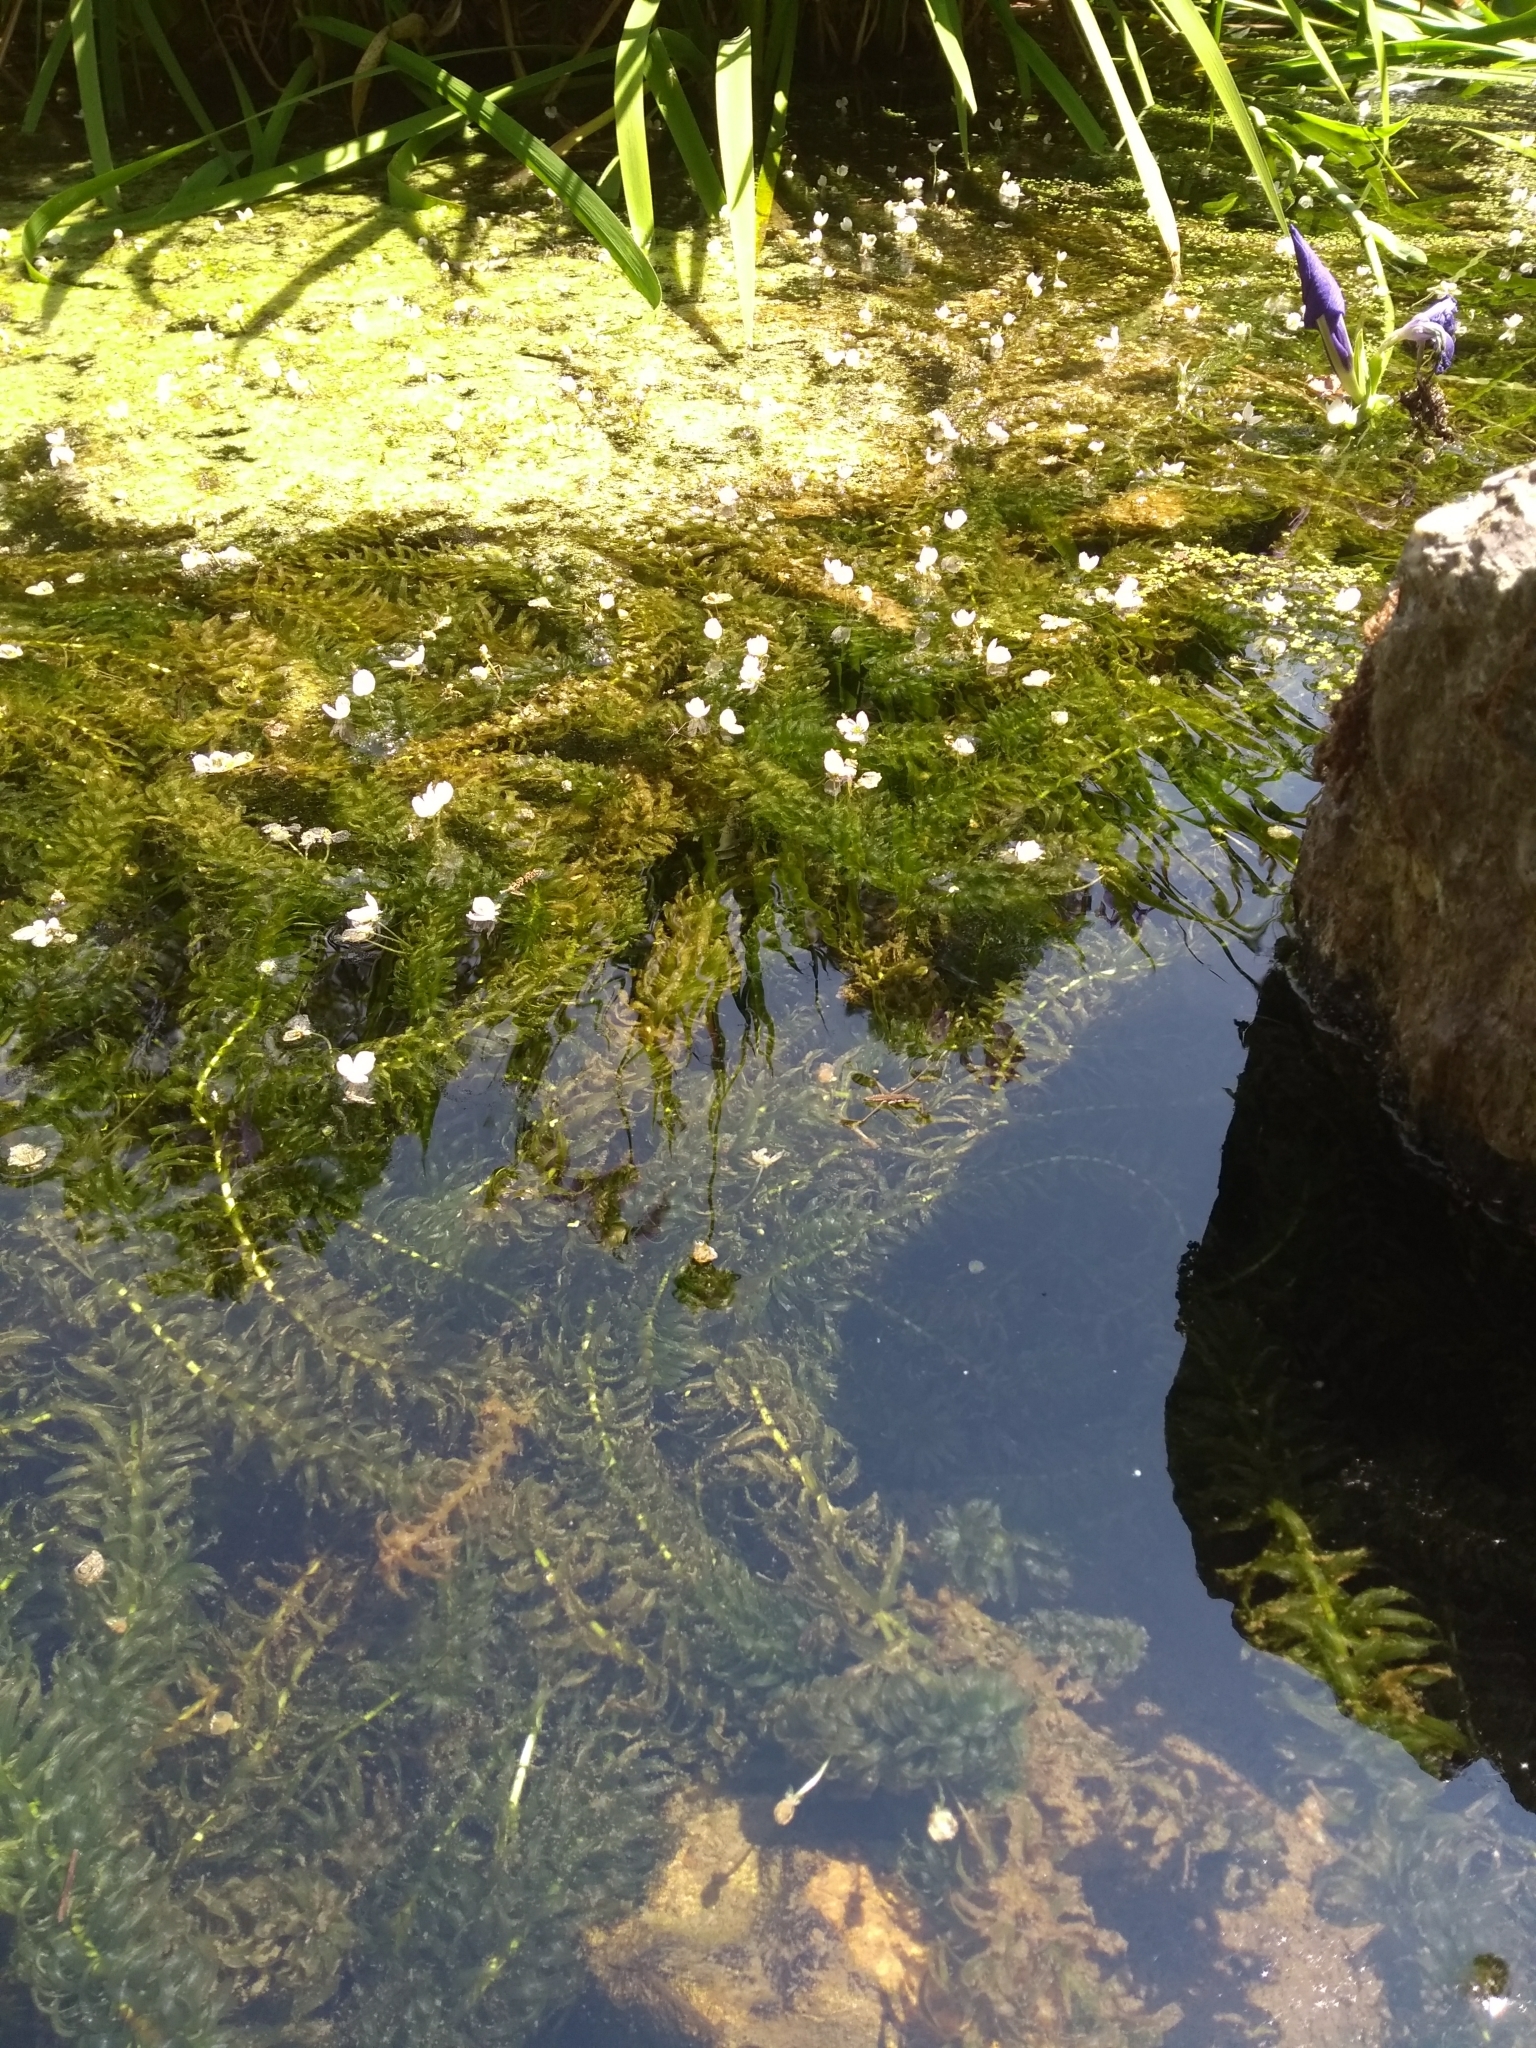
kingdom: Plantae
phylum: Tracheophyta
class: Liliopsida
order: Alismatales
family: Hydrocharitaceae
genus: Elodea
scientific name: Elodea densa
